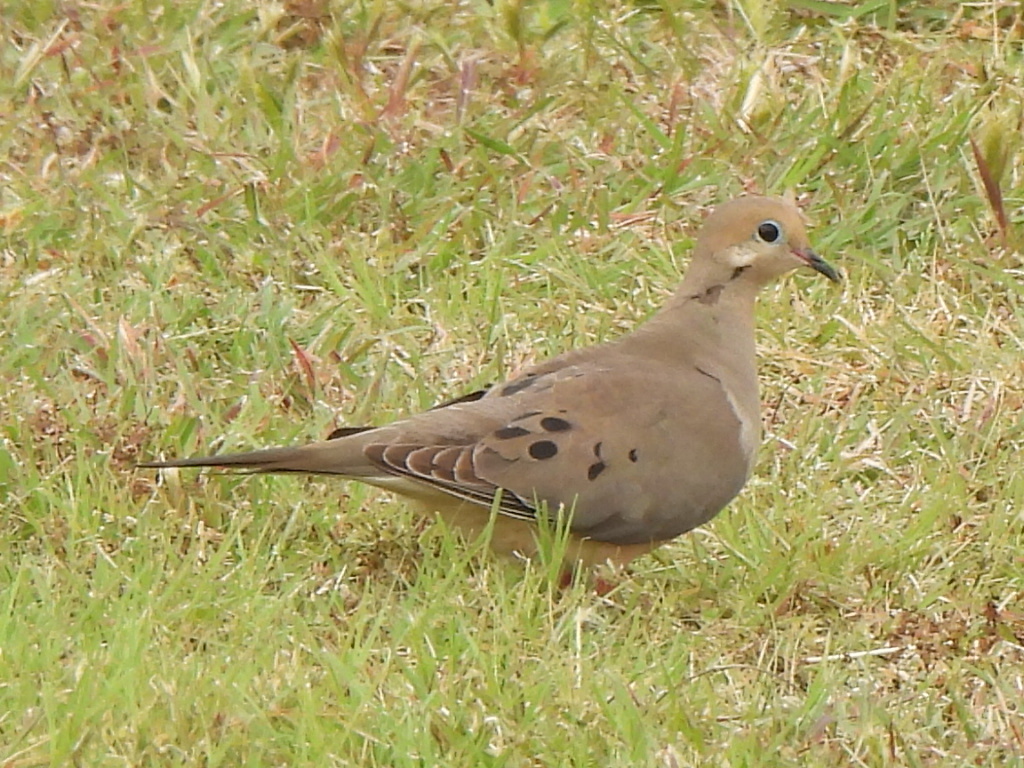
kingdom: Animalia
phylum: Chordata
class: Aves
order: Columbiformes
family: Columbidae
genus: Zenaida
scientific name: Zenaida macroura
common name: Mourning dove
